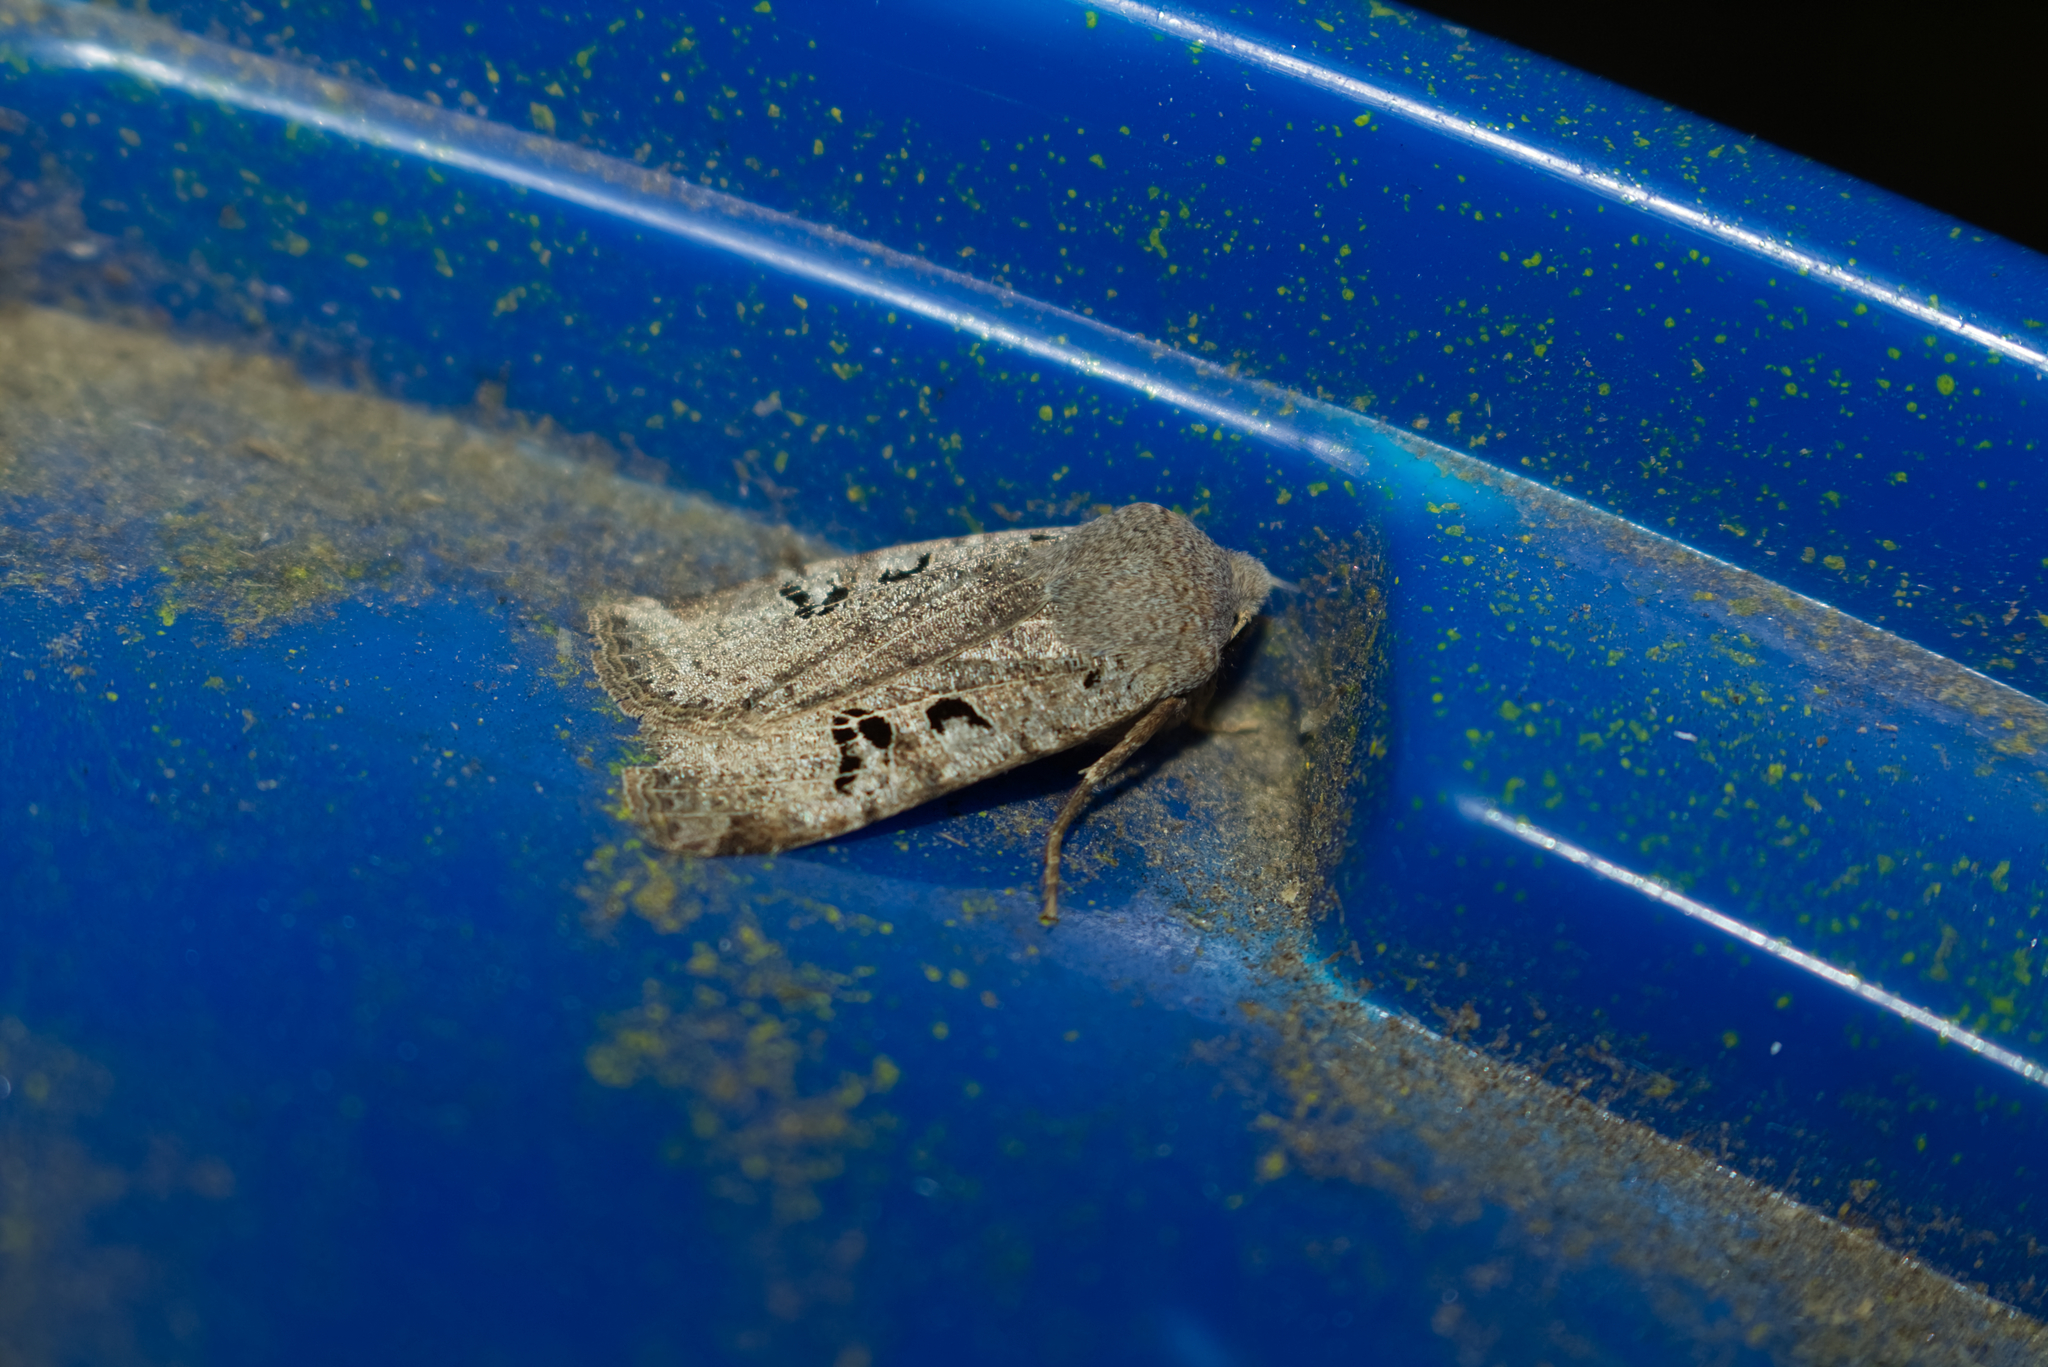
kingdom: Animalia
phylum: Arthropoda
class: Insecta
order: Lepidoptera
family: Noctuidae
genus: Conistra
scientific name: Conistra rubiginosa
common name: Black-spotted chestnut
